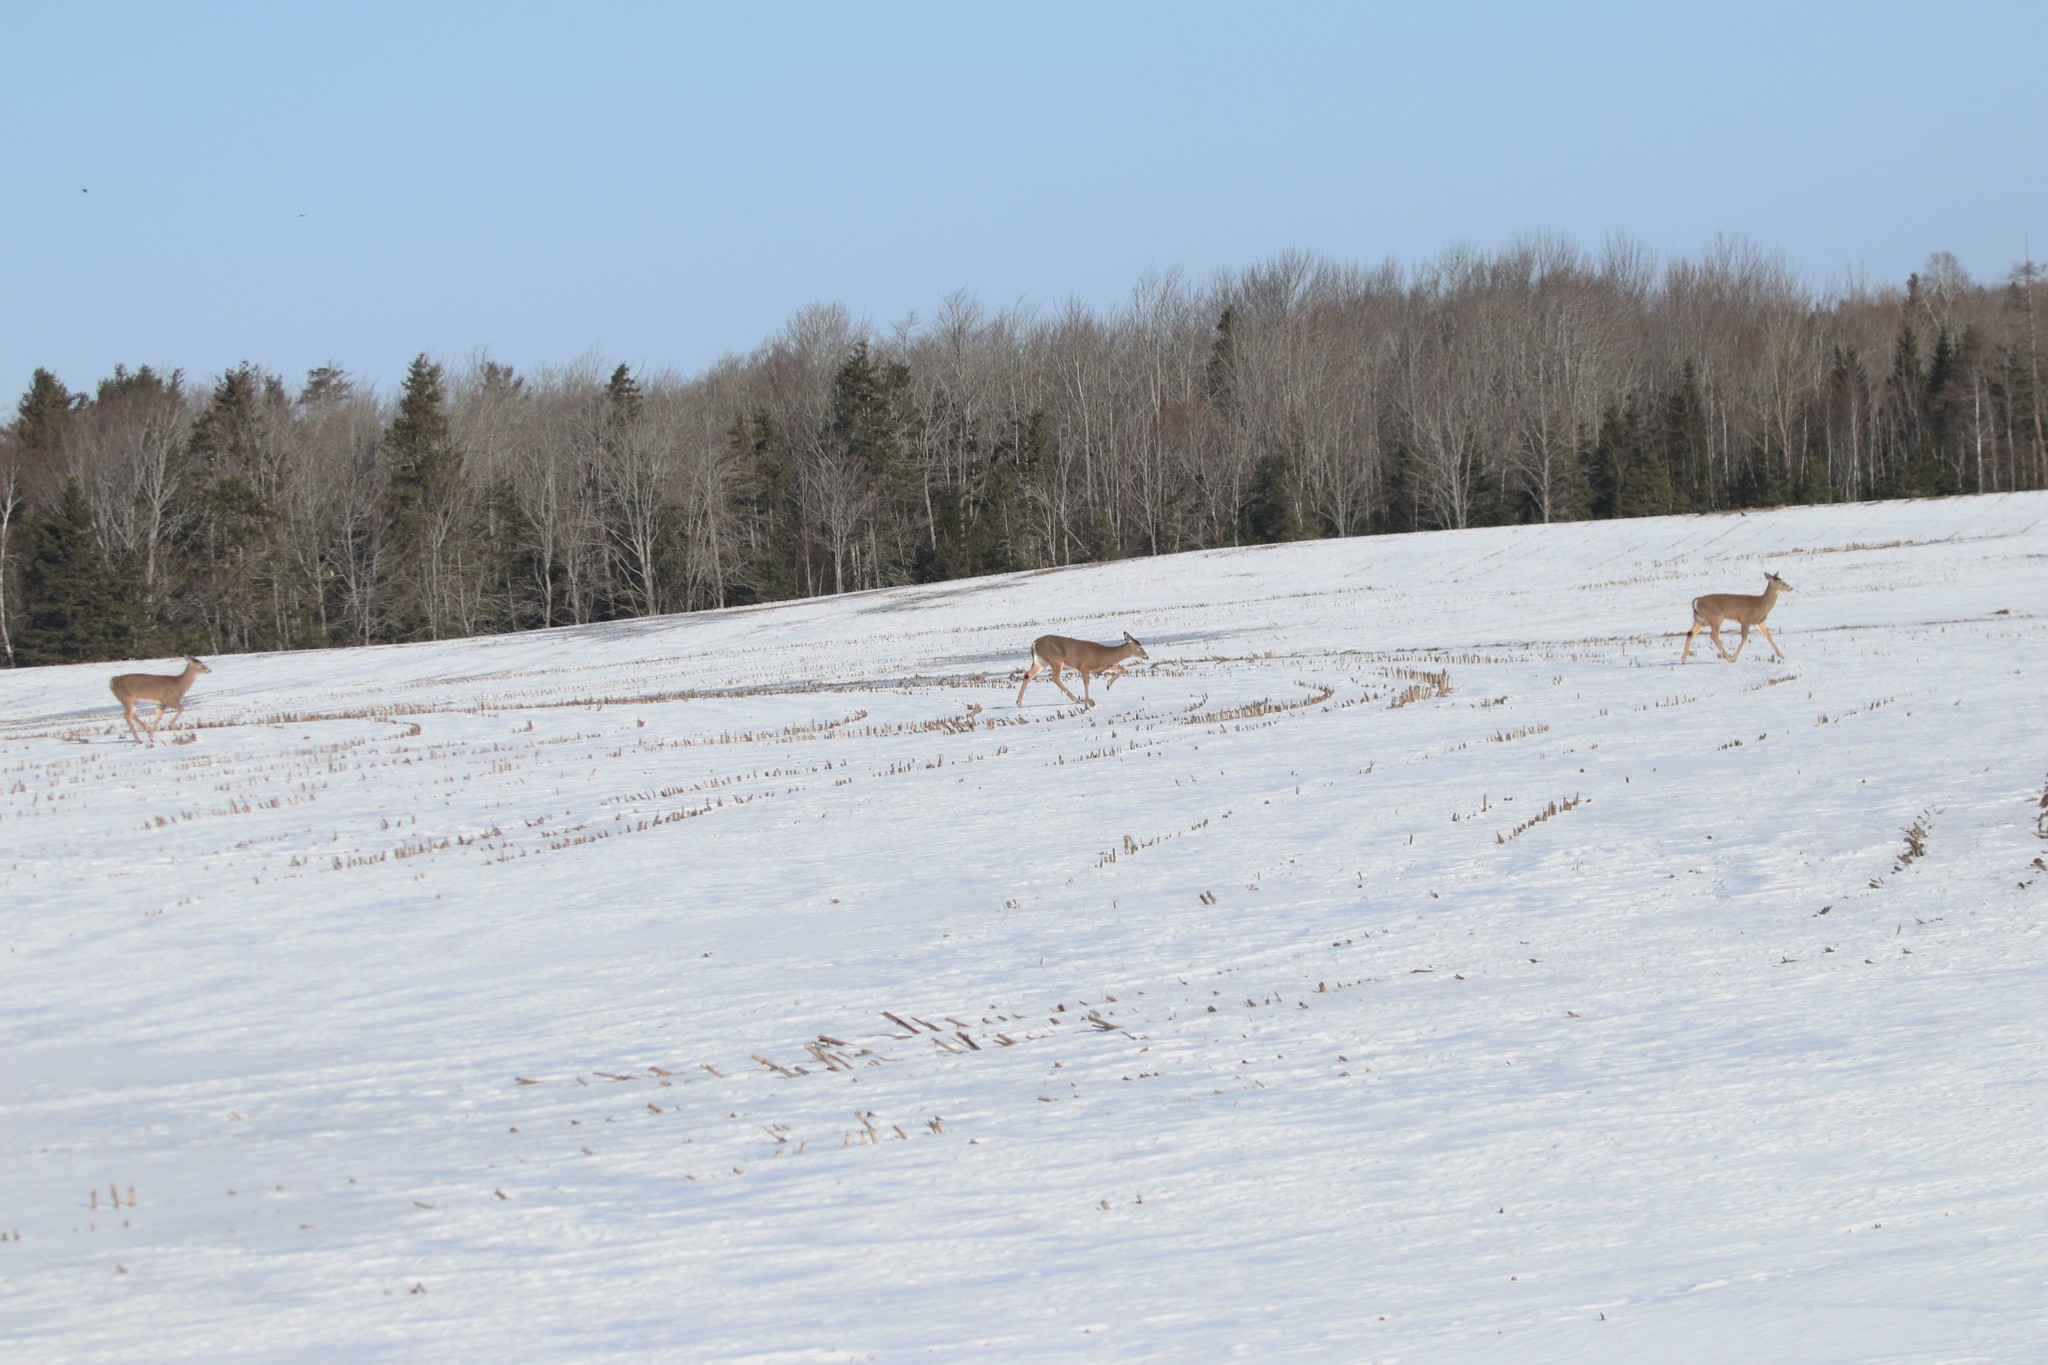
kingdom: Animalia
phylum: Chordata
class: Mammalia
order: Artiodactyla
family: Cervidae
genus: Odocoileus
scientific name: Odocoileus virginianus
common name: White-tailed deer
